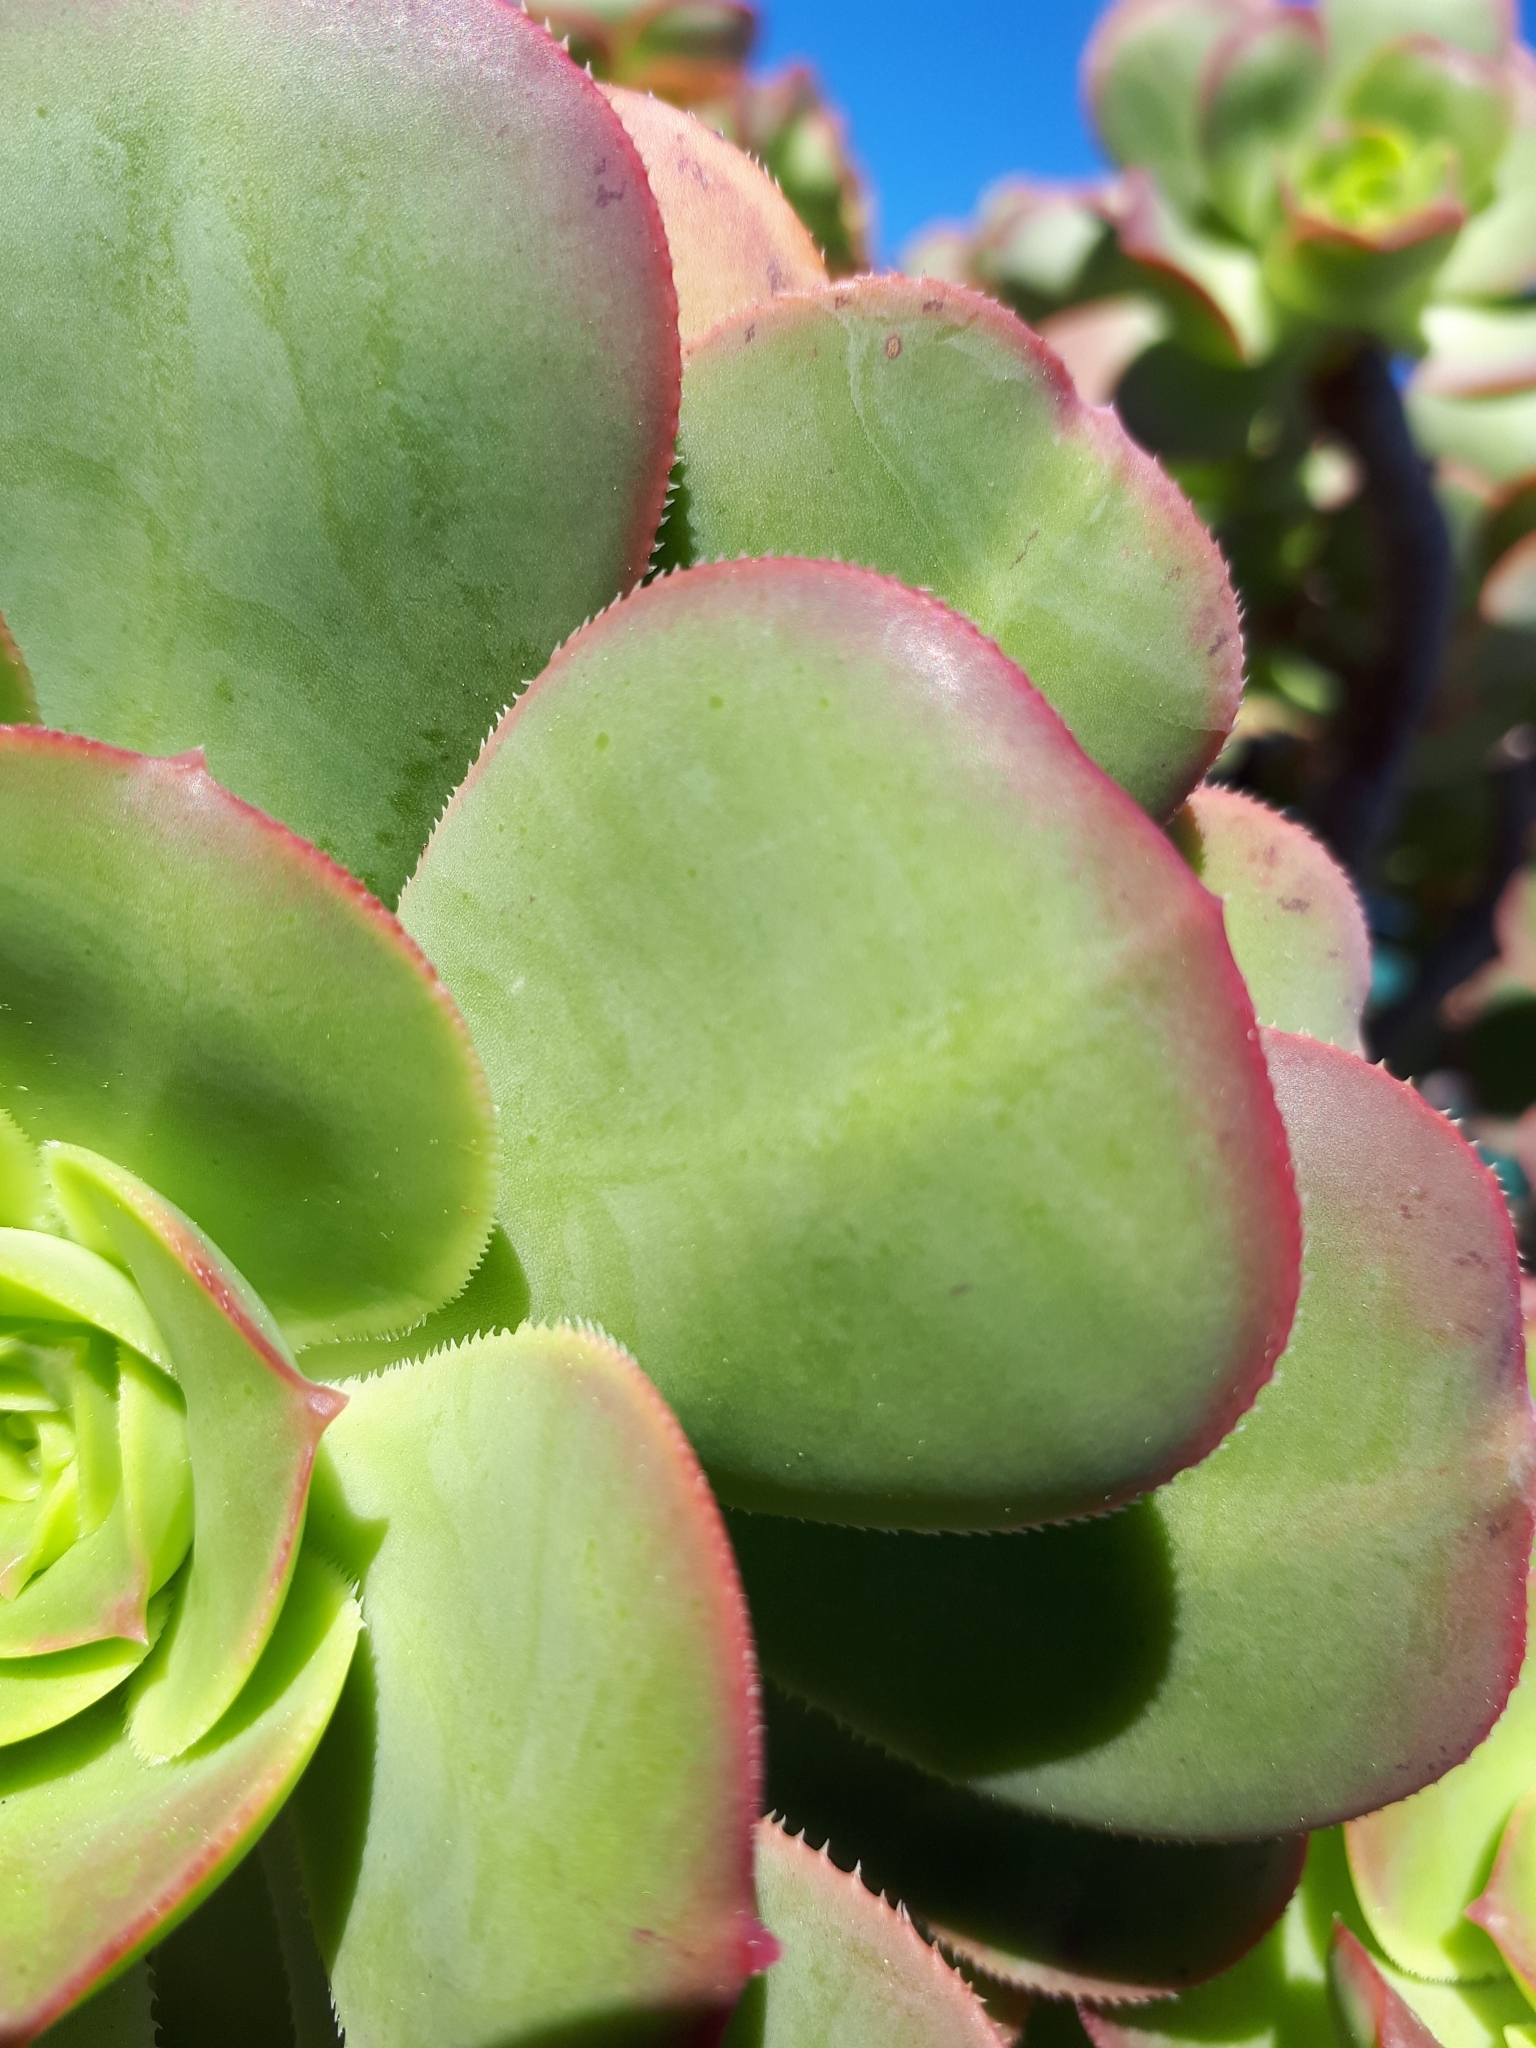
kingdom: Plantae
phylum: Tracheophyta
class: Magnoliopsida
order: Saxifragales
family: Crassulaceae
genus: Aeonium
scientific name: Aeonium davidbramwellii
